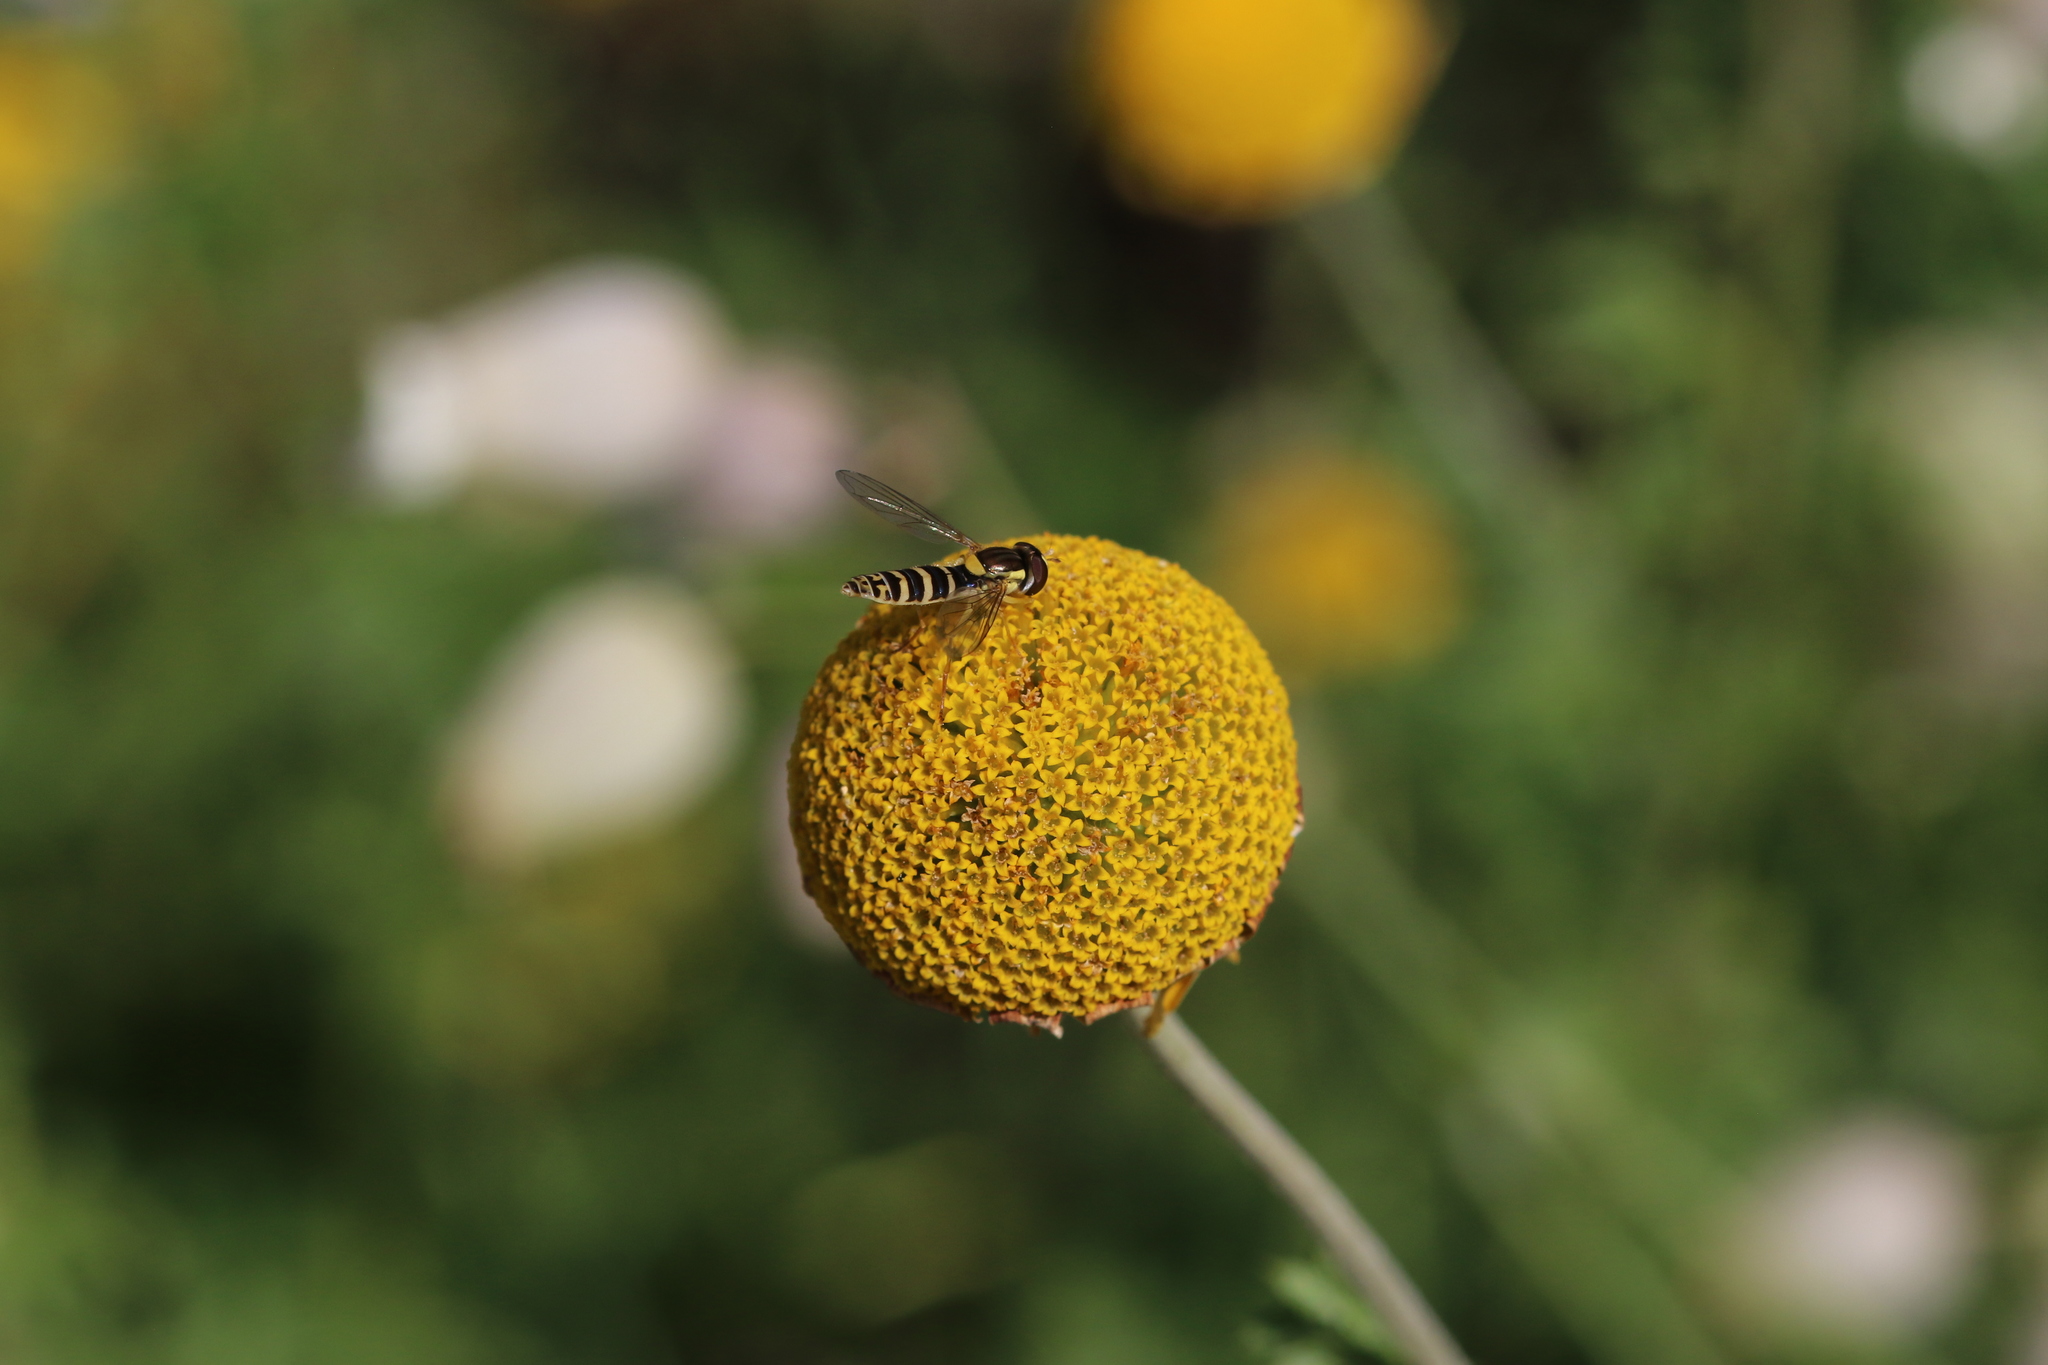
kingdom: Animalia
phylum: Arthropoda
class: Insecta
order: Diptera
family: Syrphidae
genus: Sphaerophoria
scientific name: Sphaerophoria
